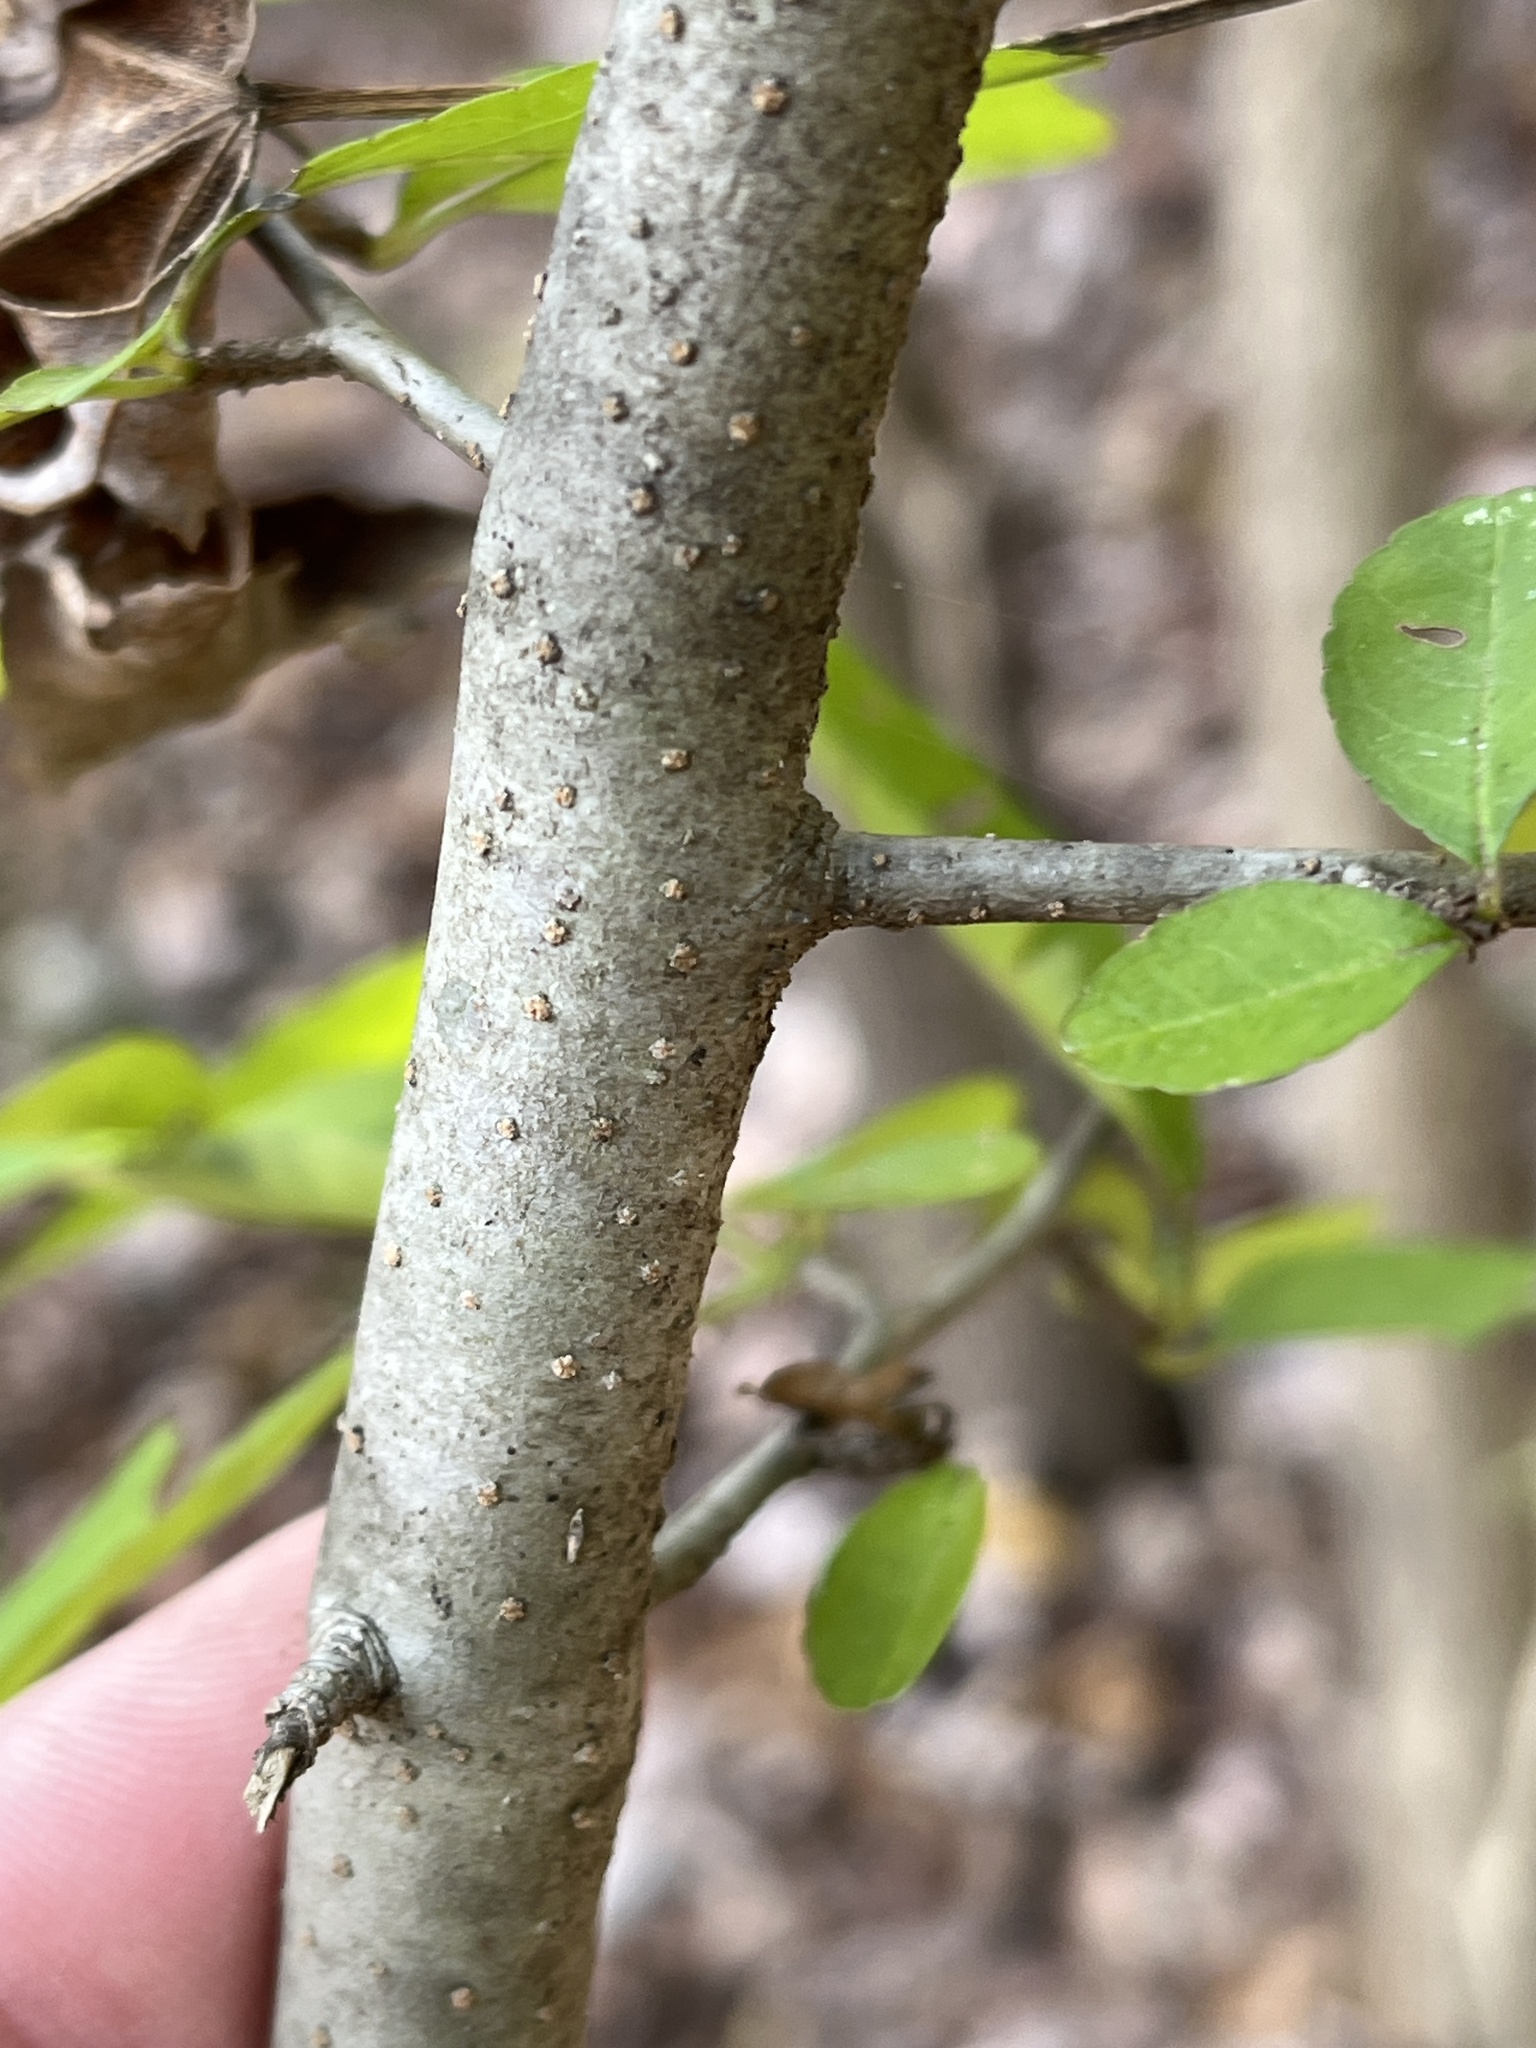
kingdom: Plantae
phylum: Tracheophyta
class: Magnoliopsida
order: Aquifoliales
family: Aquifoliaceae
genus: Ilex
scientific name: Ilex decidua
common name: Possum-haw
